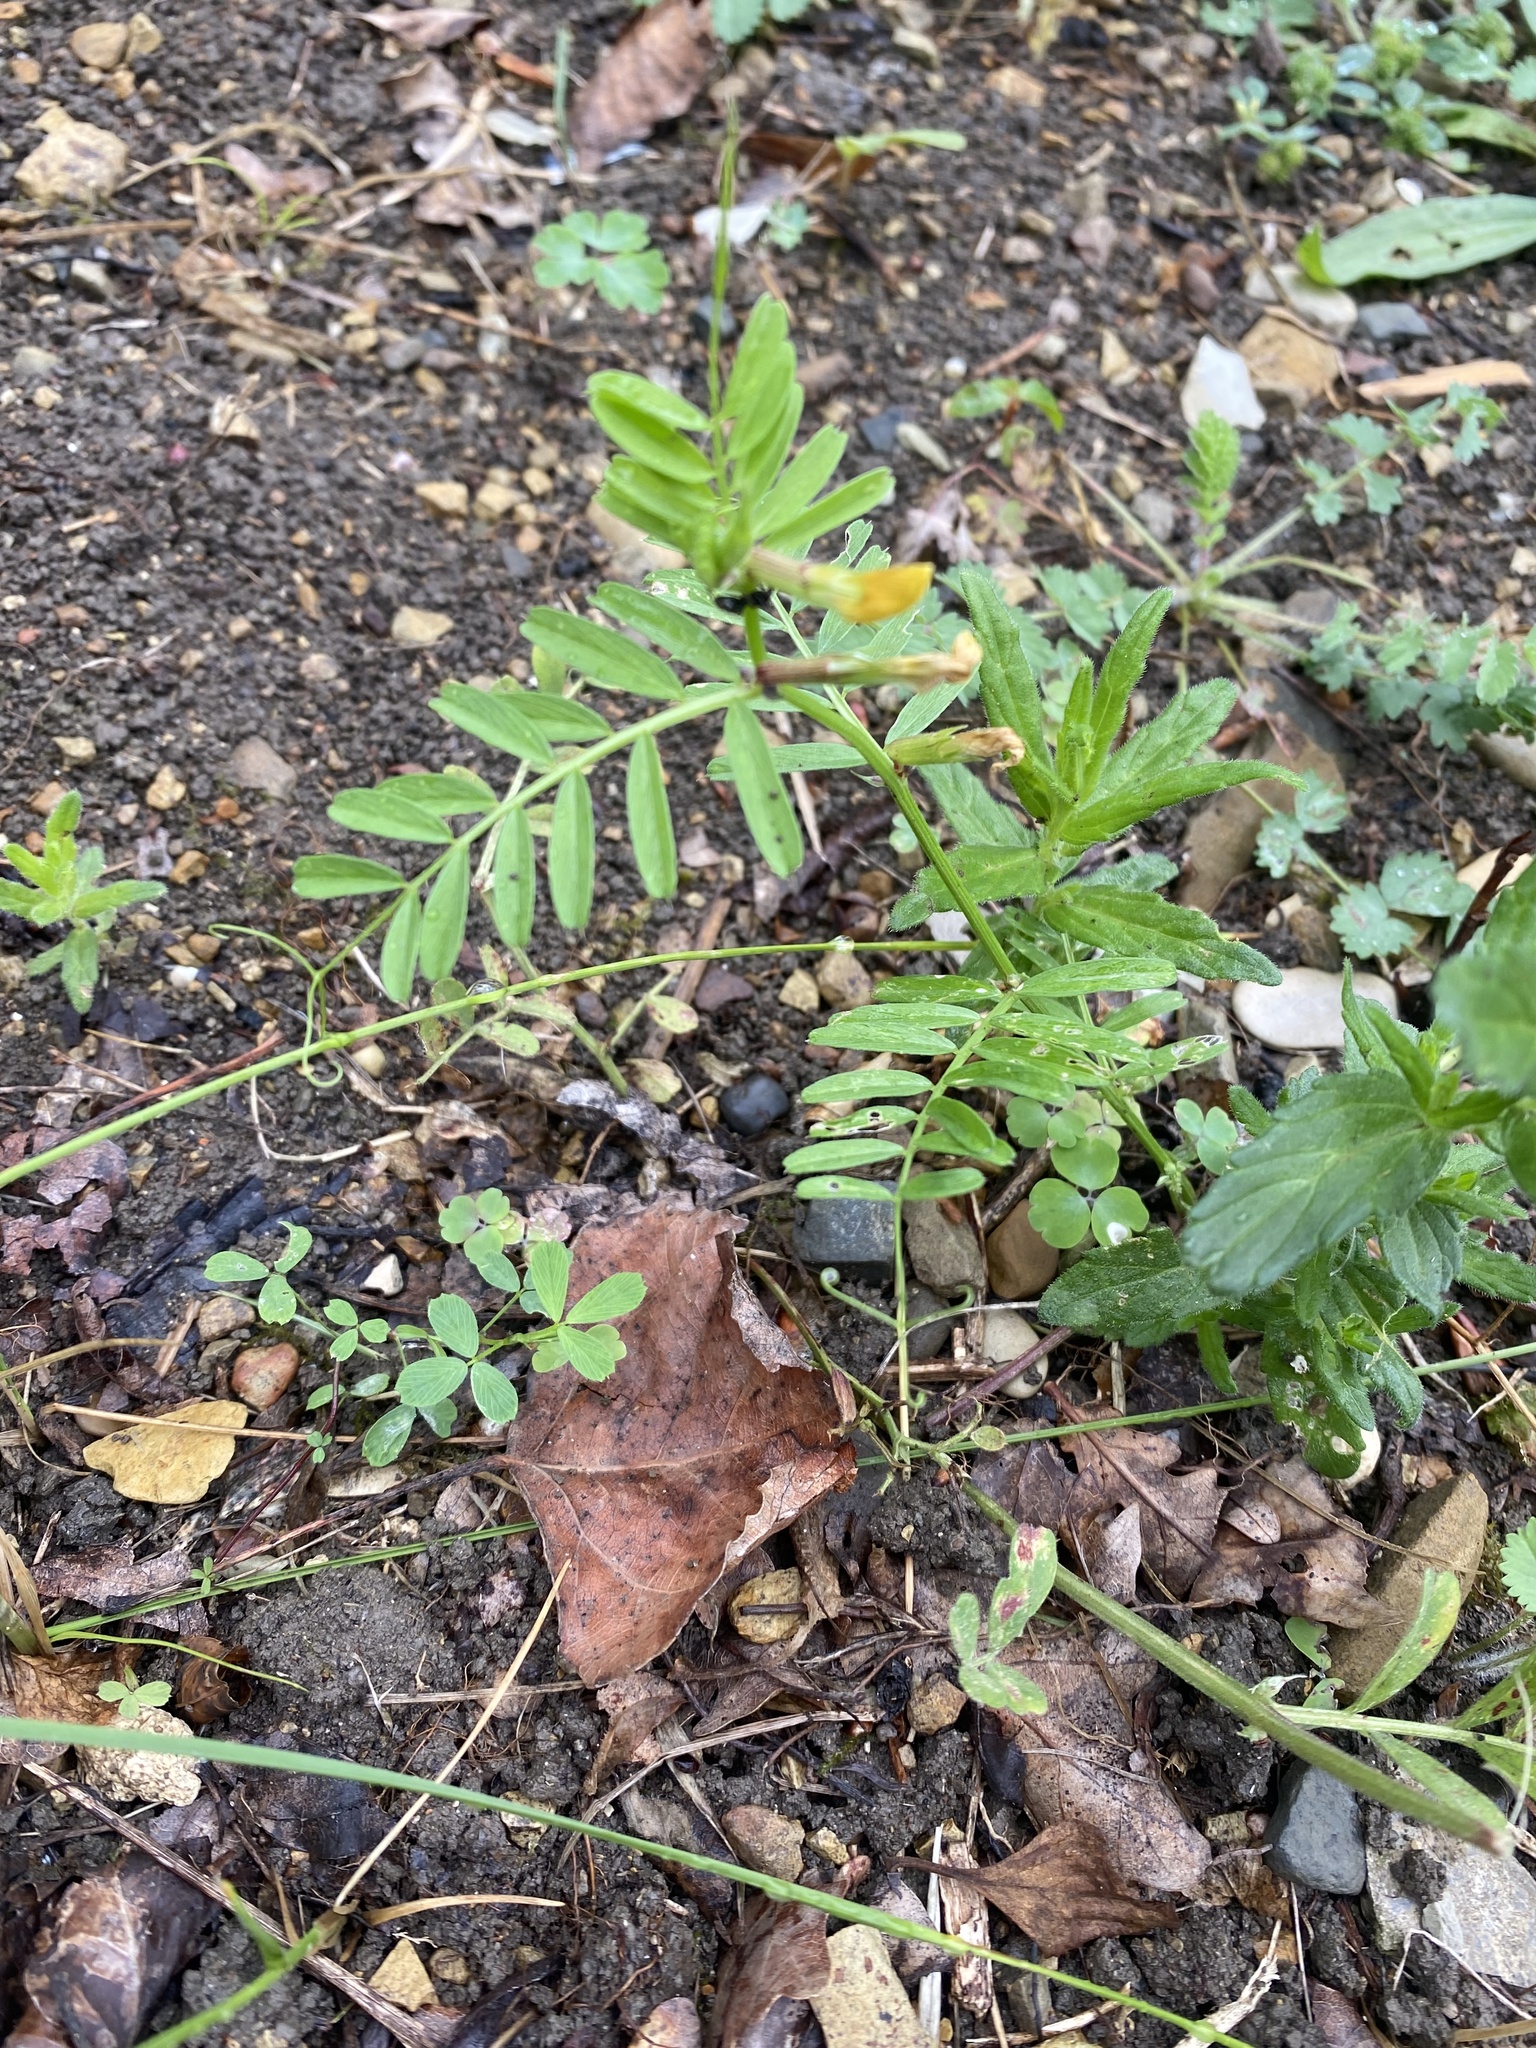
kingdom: Plantae
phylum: Tracheophyta
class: Magnoliopsida
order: Fabales
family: Fabaceae
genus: Vicia
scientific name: Vicia grandiflora
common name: Large yellow vetch
